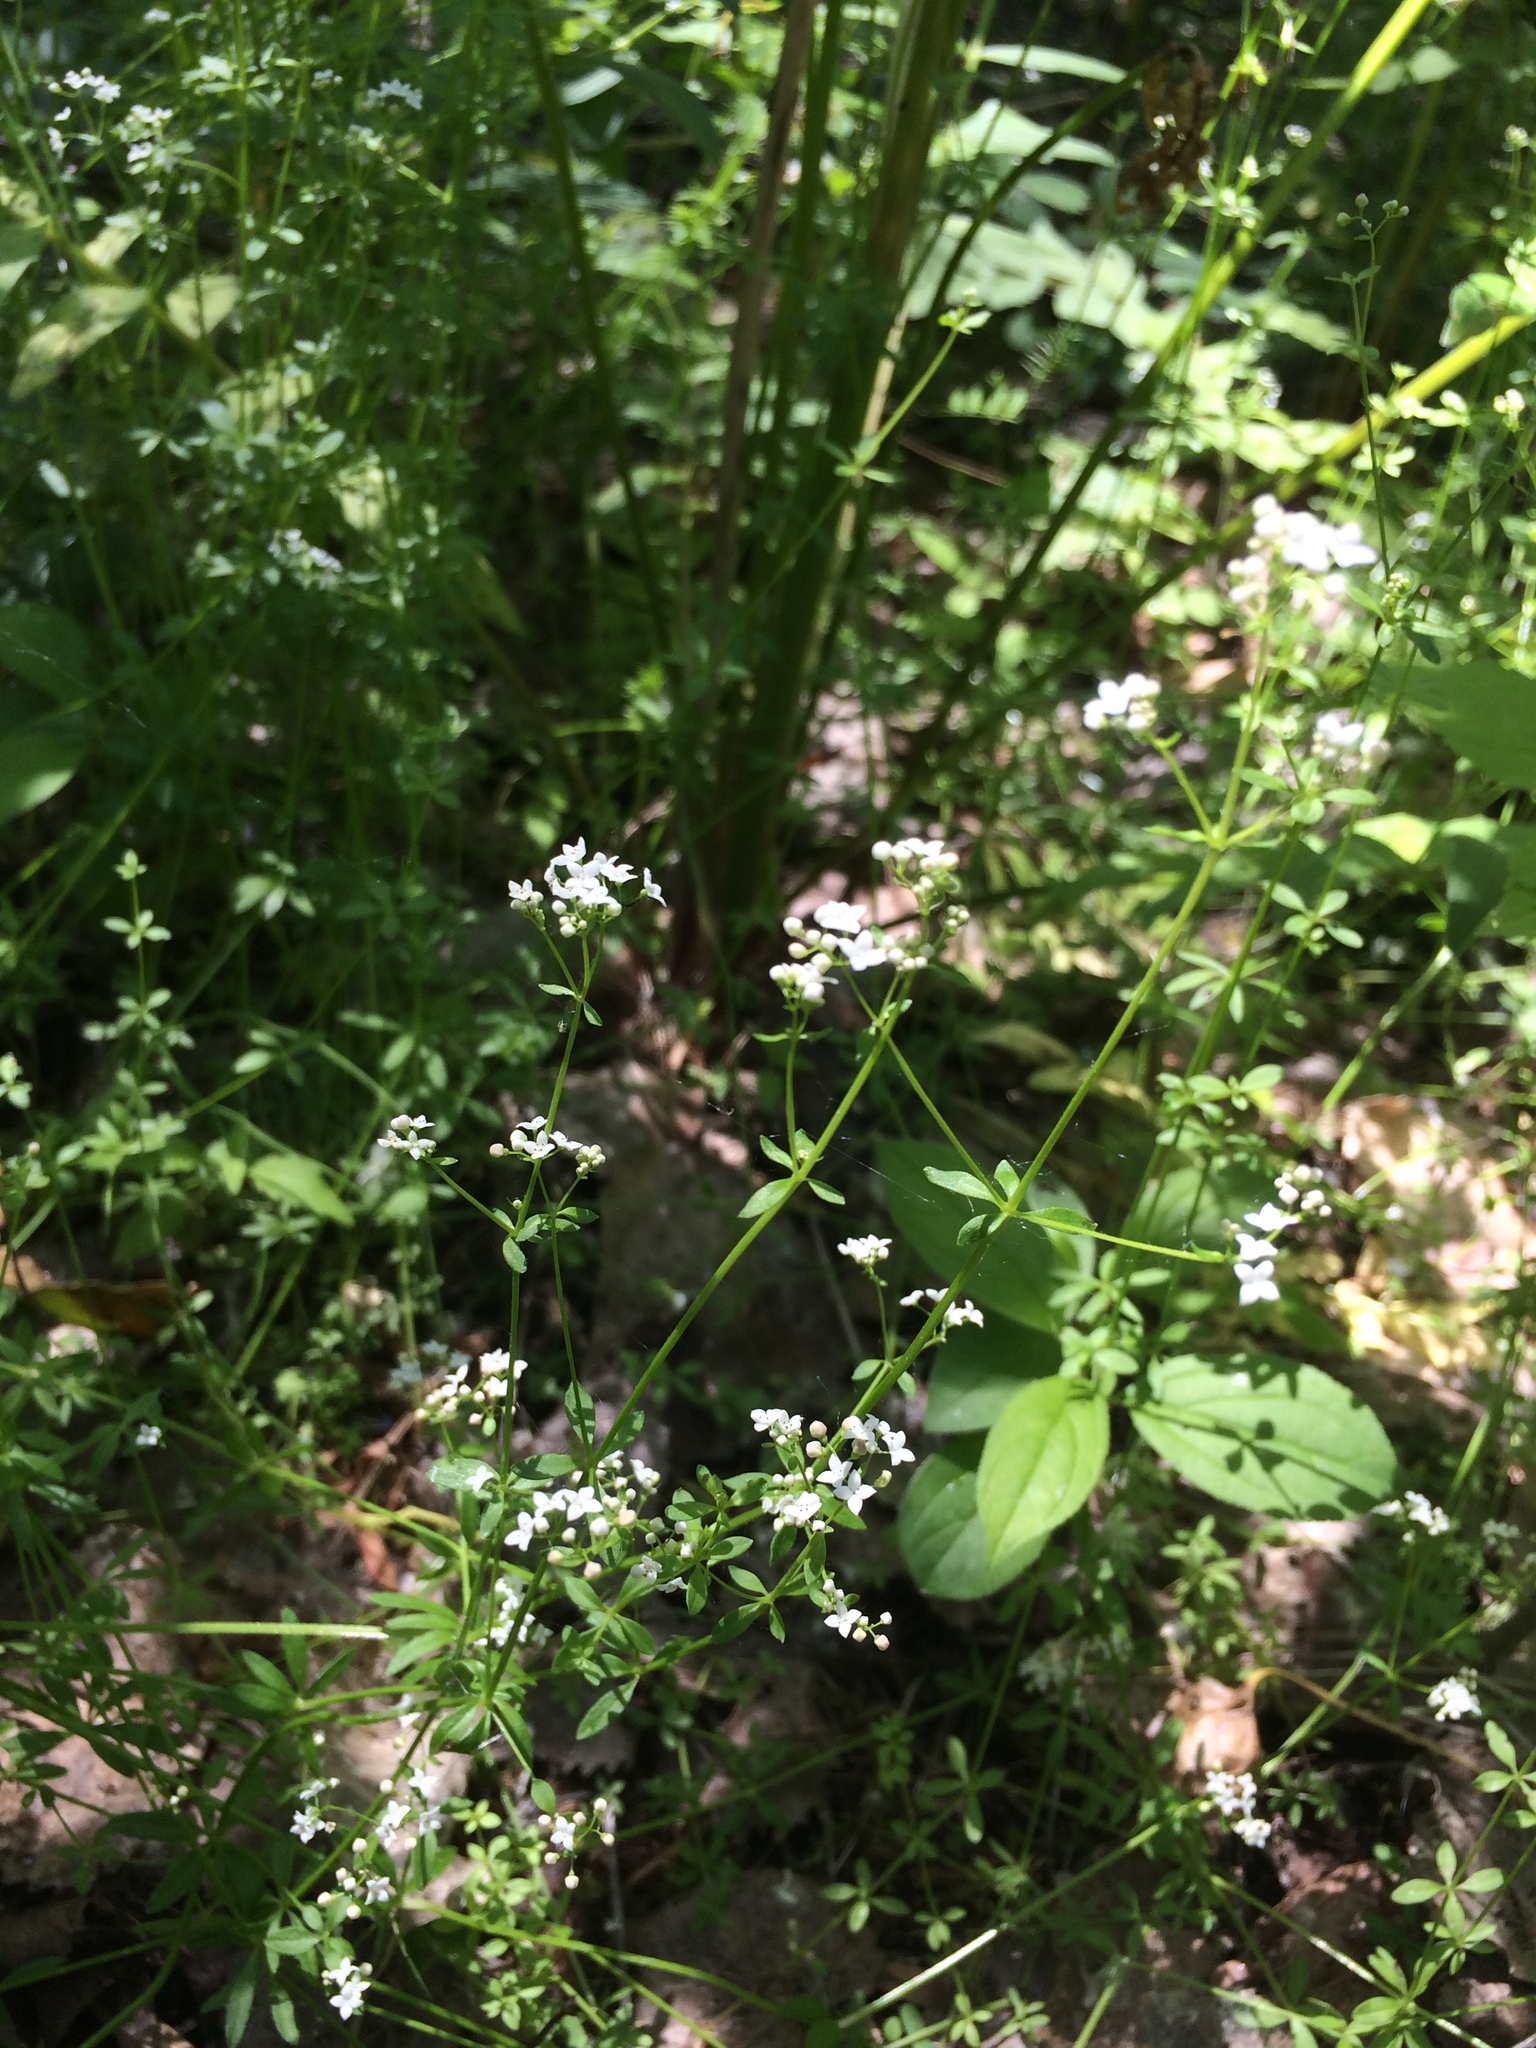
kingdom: Plantae
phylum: Tracheophyta
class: Magnoliopsida
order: Gentianales
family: Rubiaceae
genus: Galium
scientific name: Galium palustre
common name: Common marsh-bedstraw
